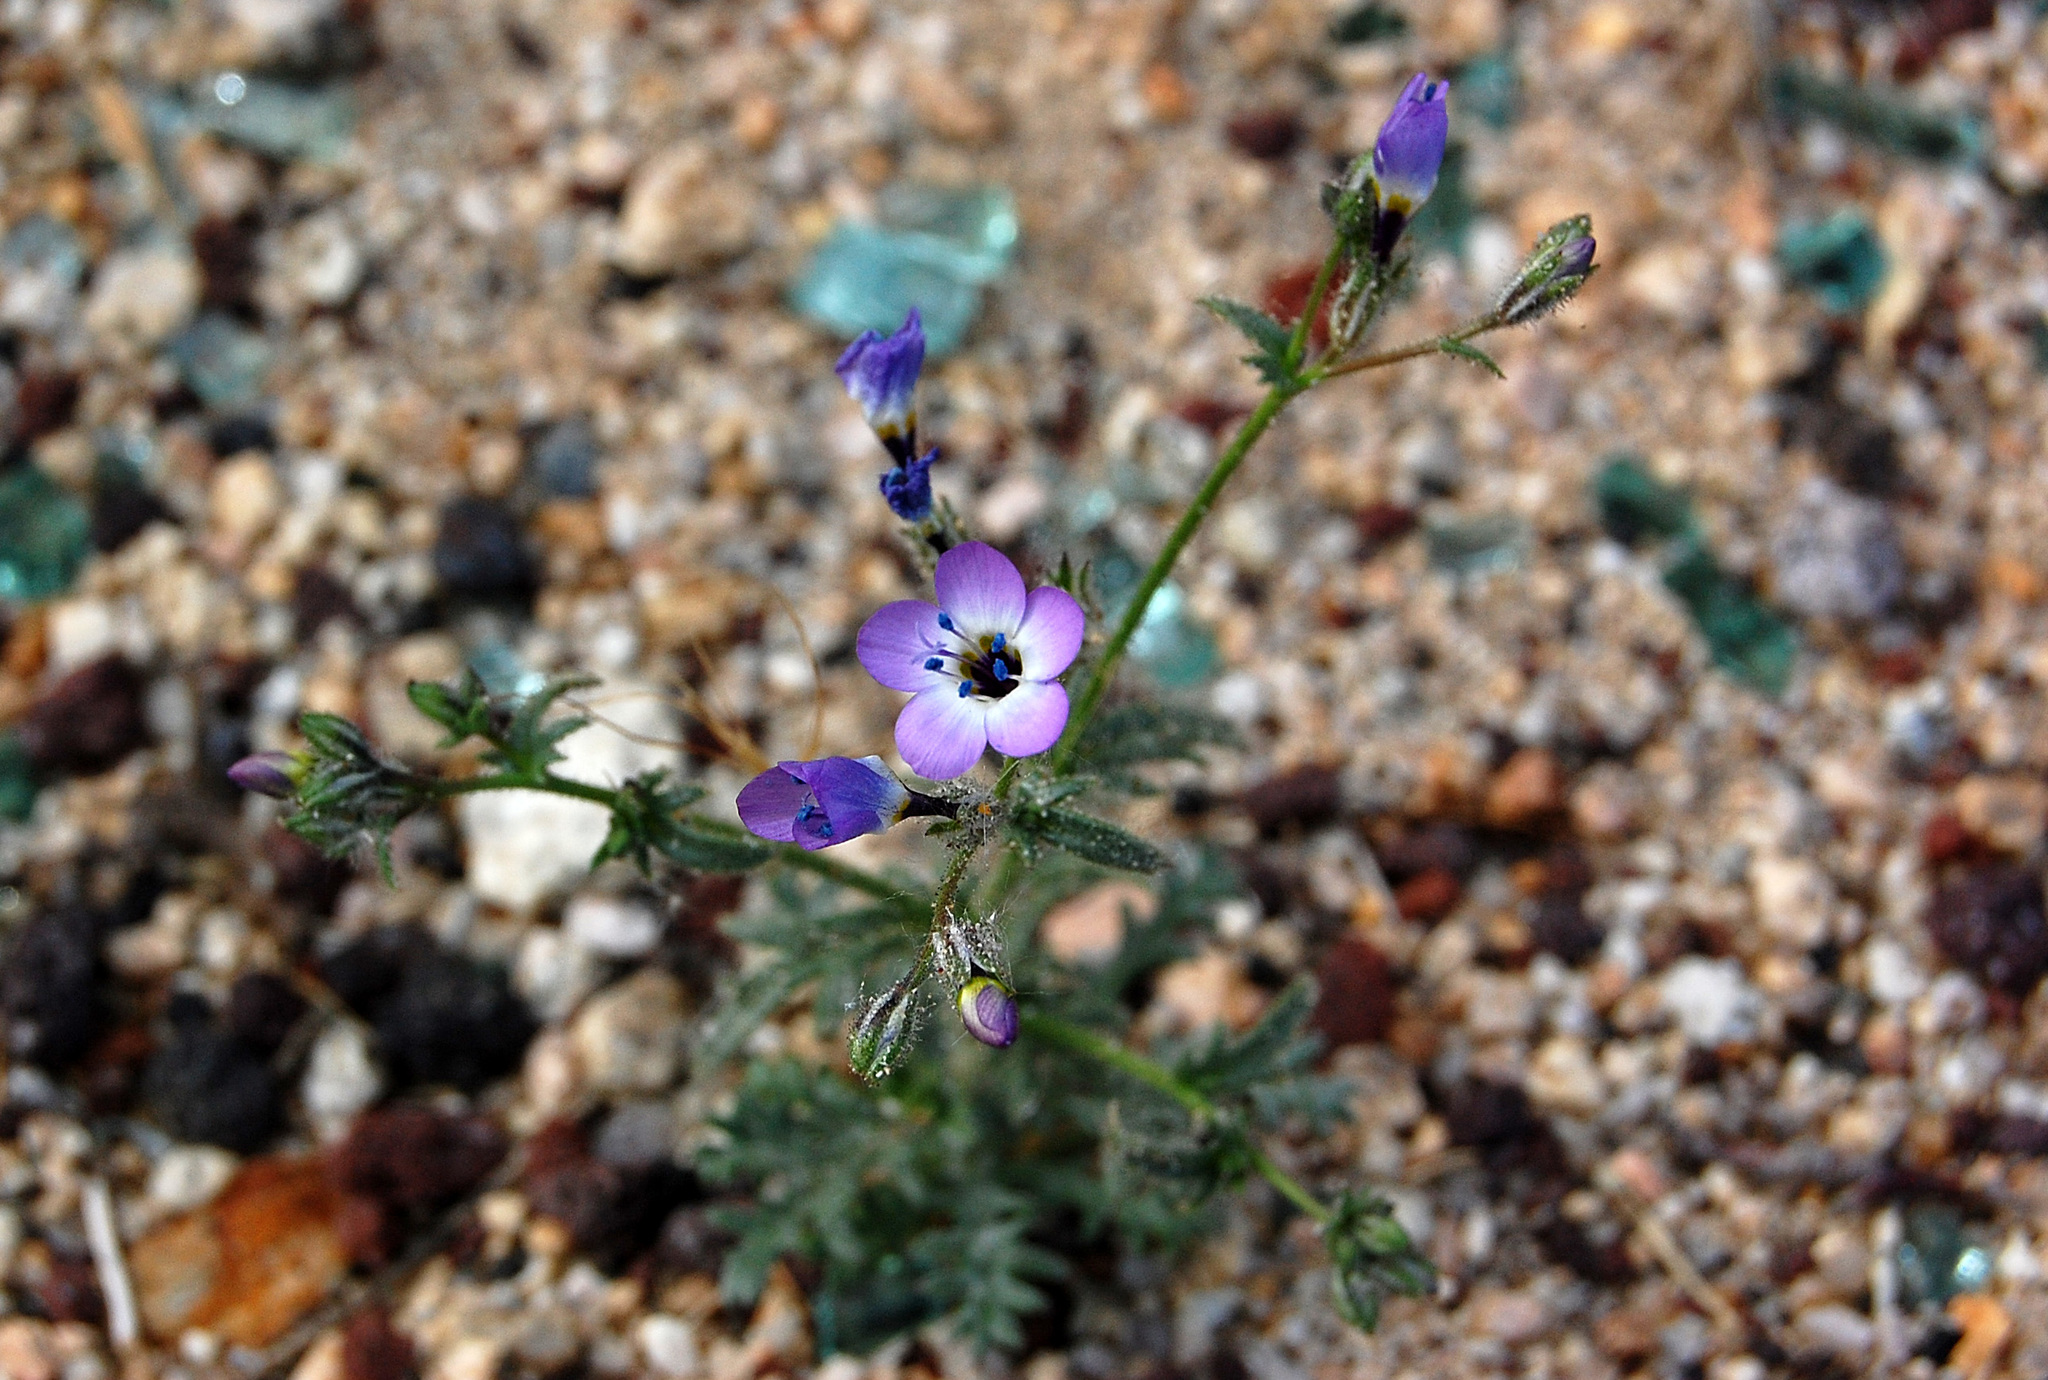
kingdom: Plantae
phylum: Tracheophyta
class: Magnoliopsida
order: Ericales
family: Polemoniaceae
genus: Gilia
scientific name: Gilia brecciarum
